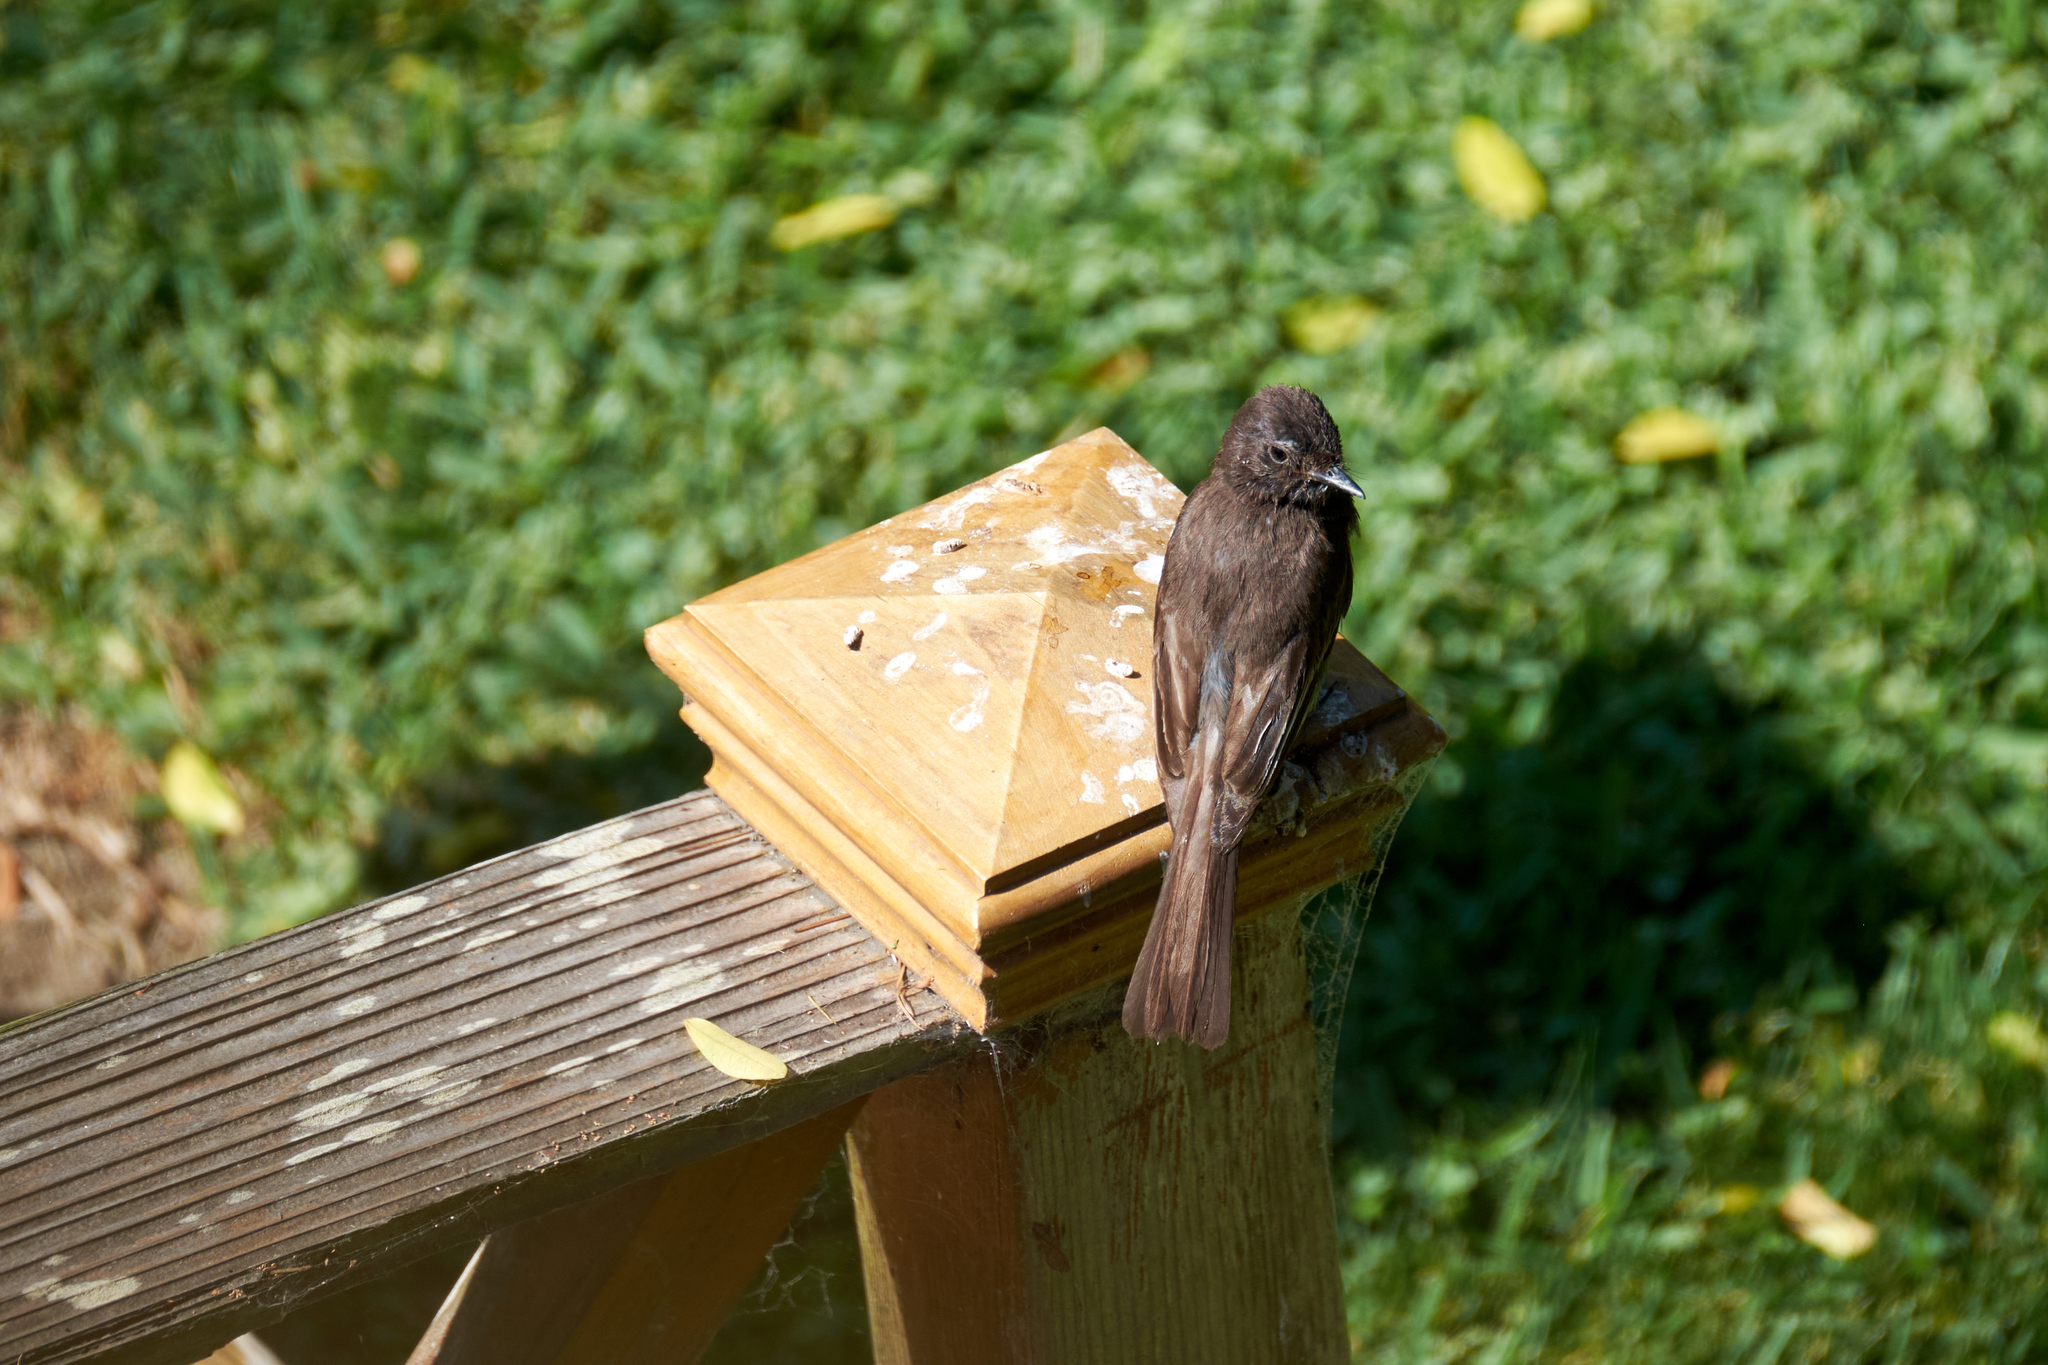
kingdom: Animalia
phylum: Chordata
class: Aves
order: Passeriformes
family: Tyrannidae
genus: Sayornis
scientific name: Sayornis nigricans
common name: Black phoebe
